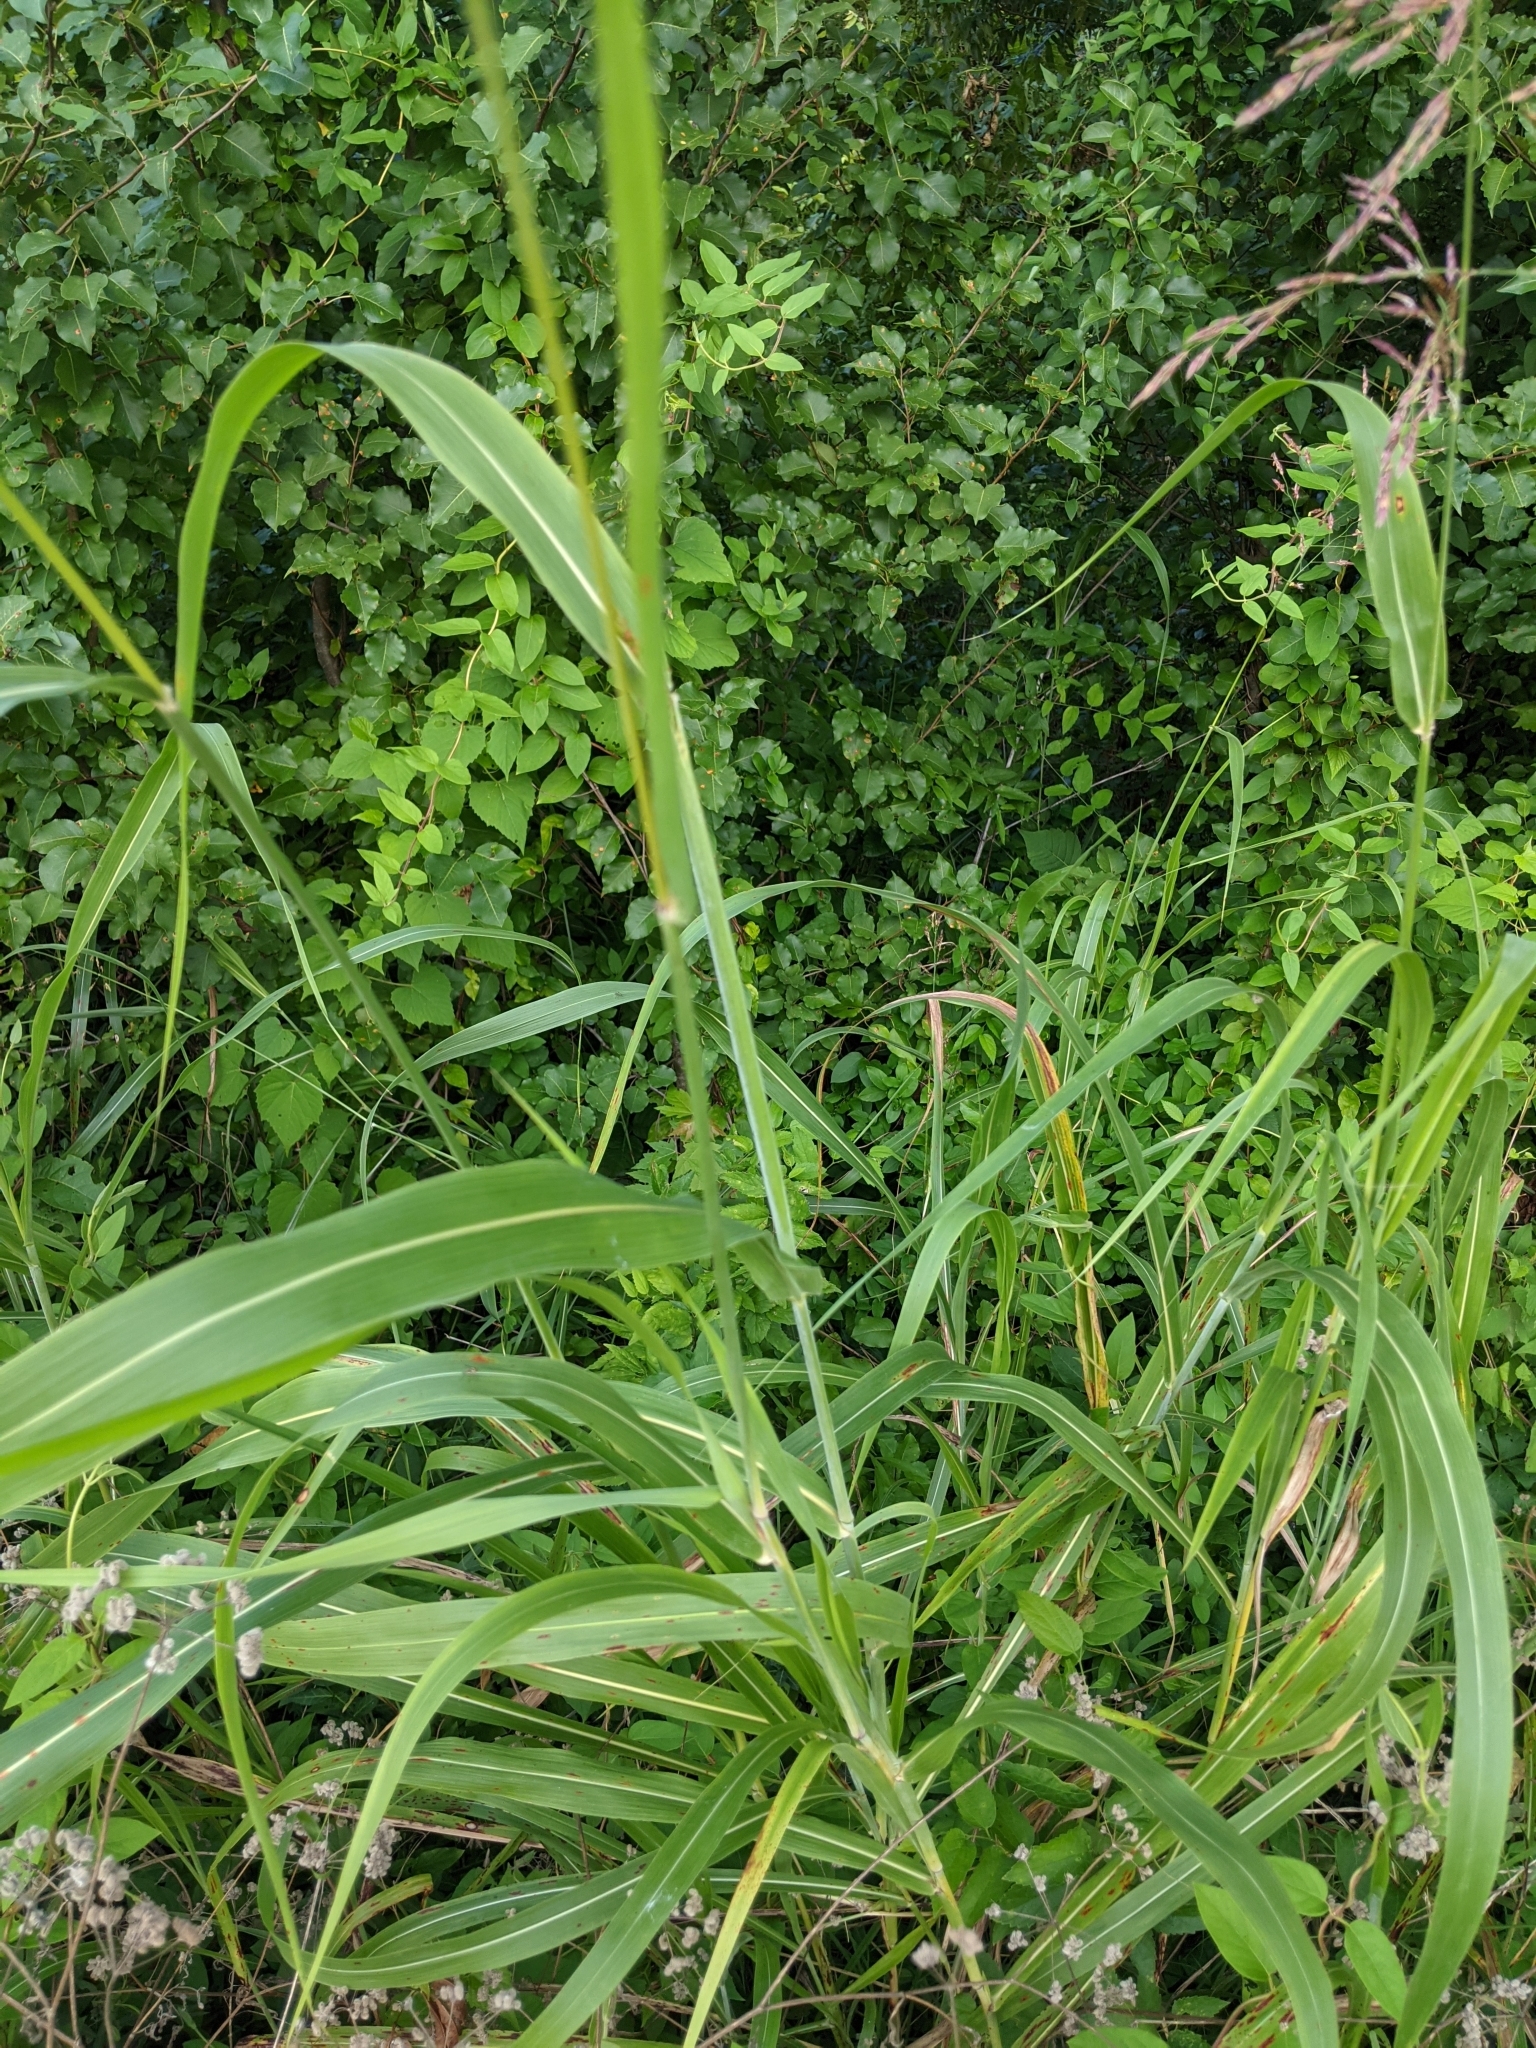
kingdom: Plantae
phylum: Tracheophyta
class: Liliopsida
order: Poales
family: Poaceae
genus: Sorghum
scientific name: Sorghum halepense
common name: Johnson-grass
